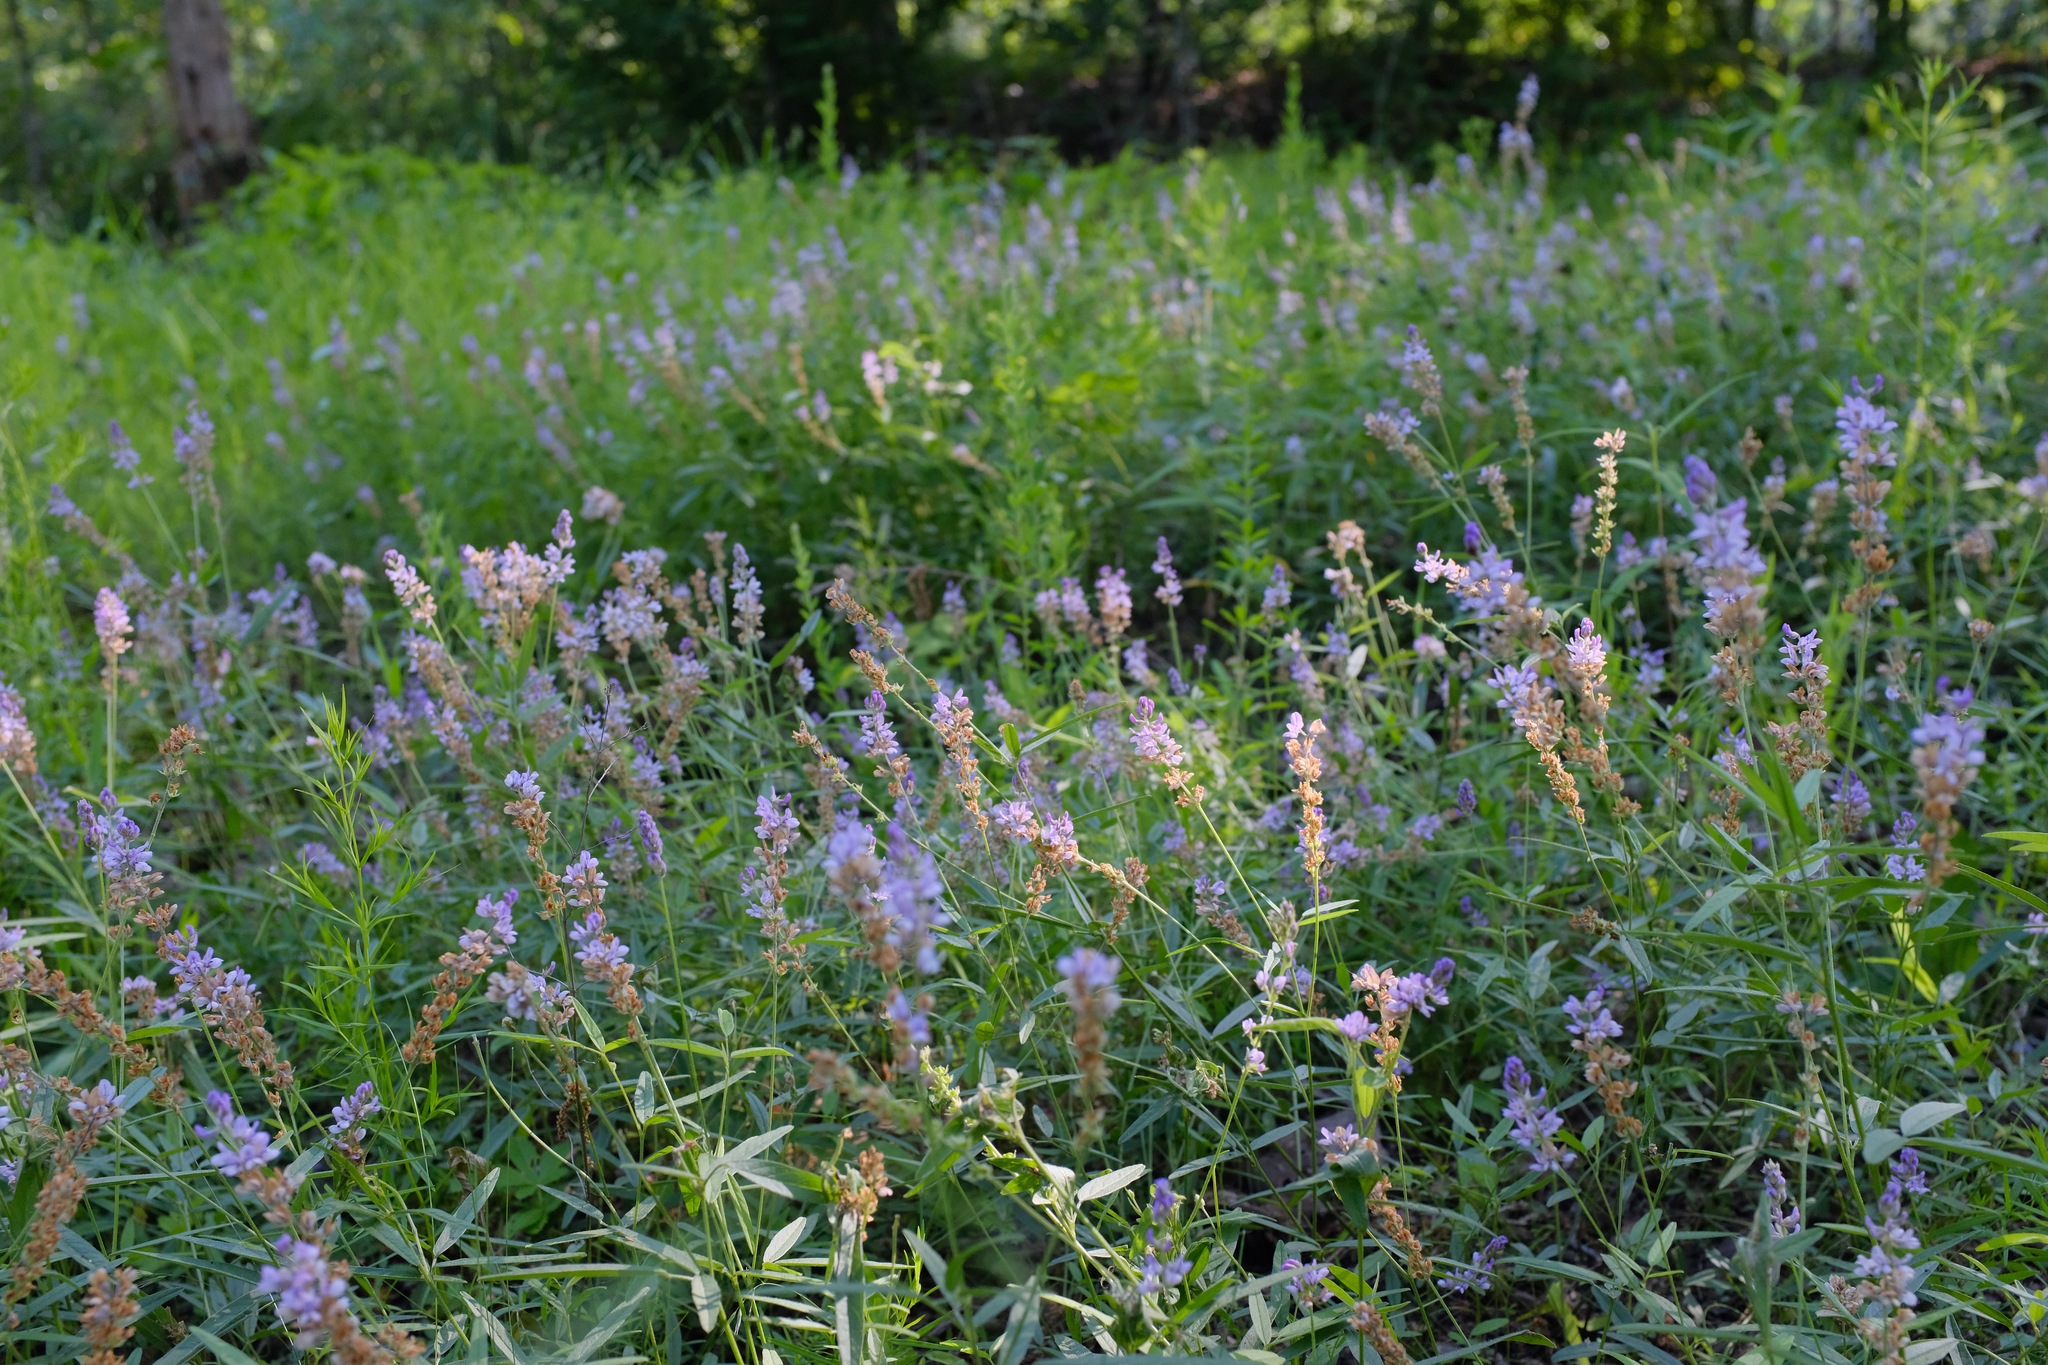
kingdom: Plantae
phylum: Tracheophyta
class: Magnoliopsida
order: Fabales
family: Fabaceae
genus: Orbexilum
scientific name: Orbexilum pedunculatum
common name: Sampson's snakeroot
